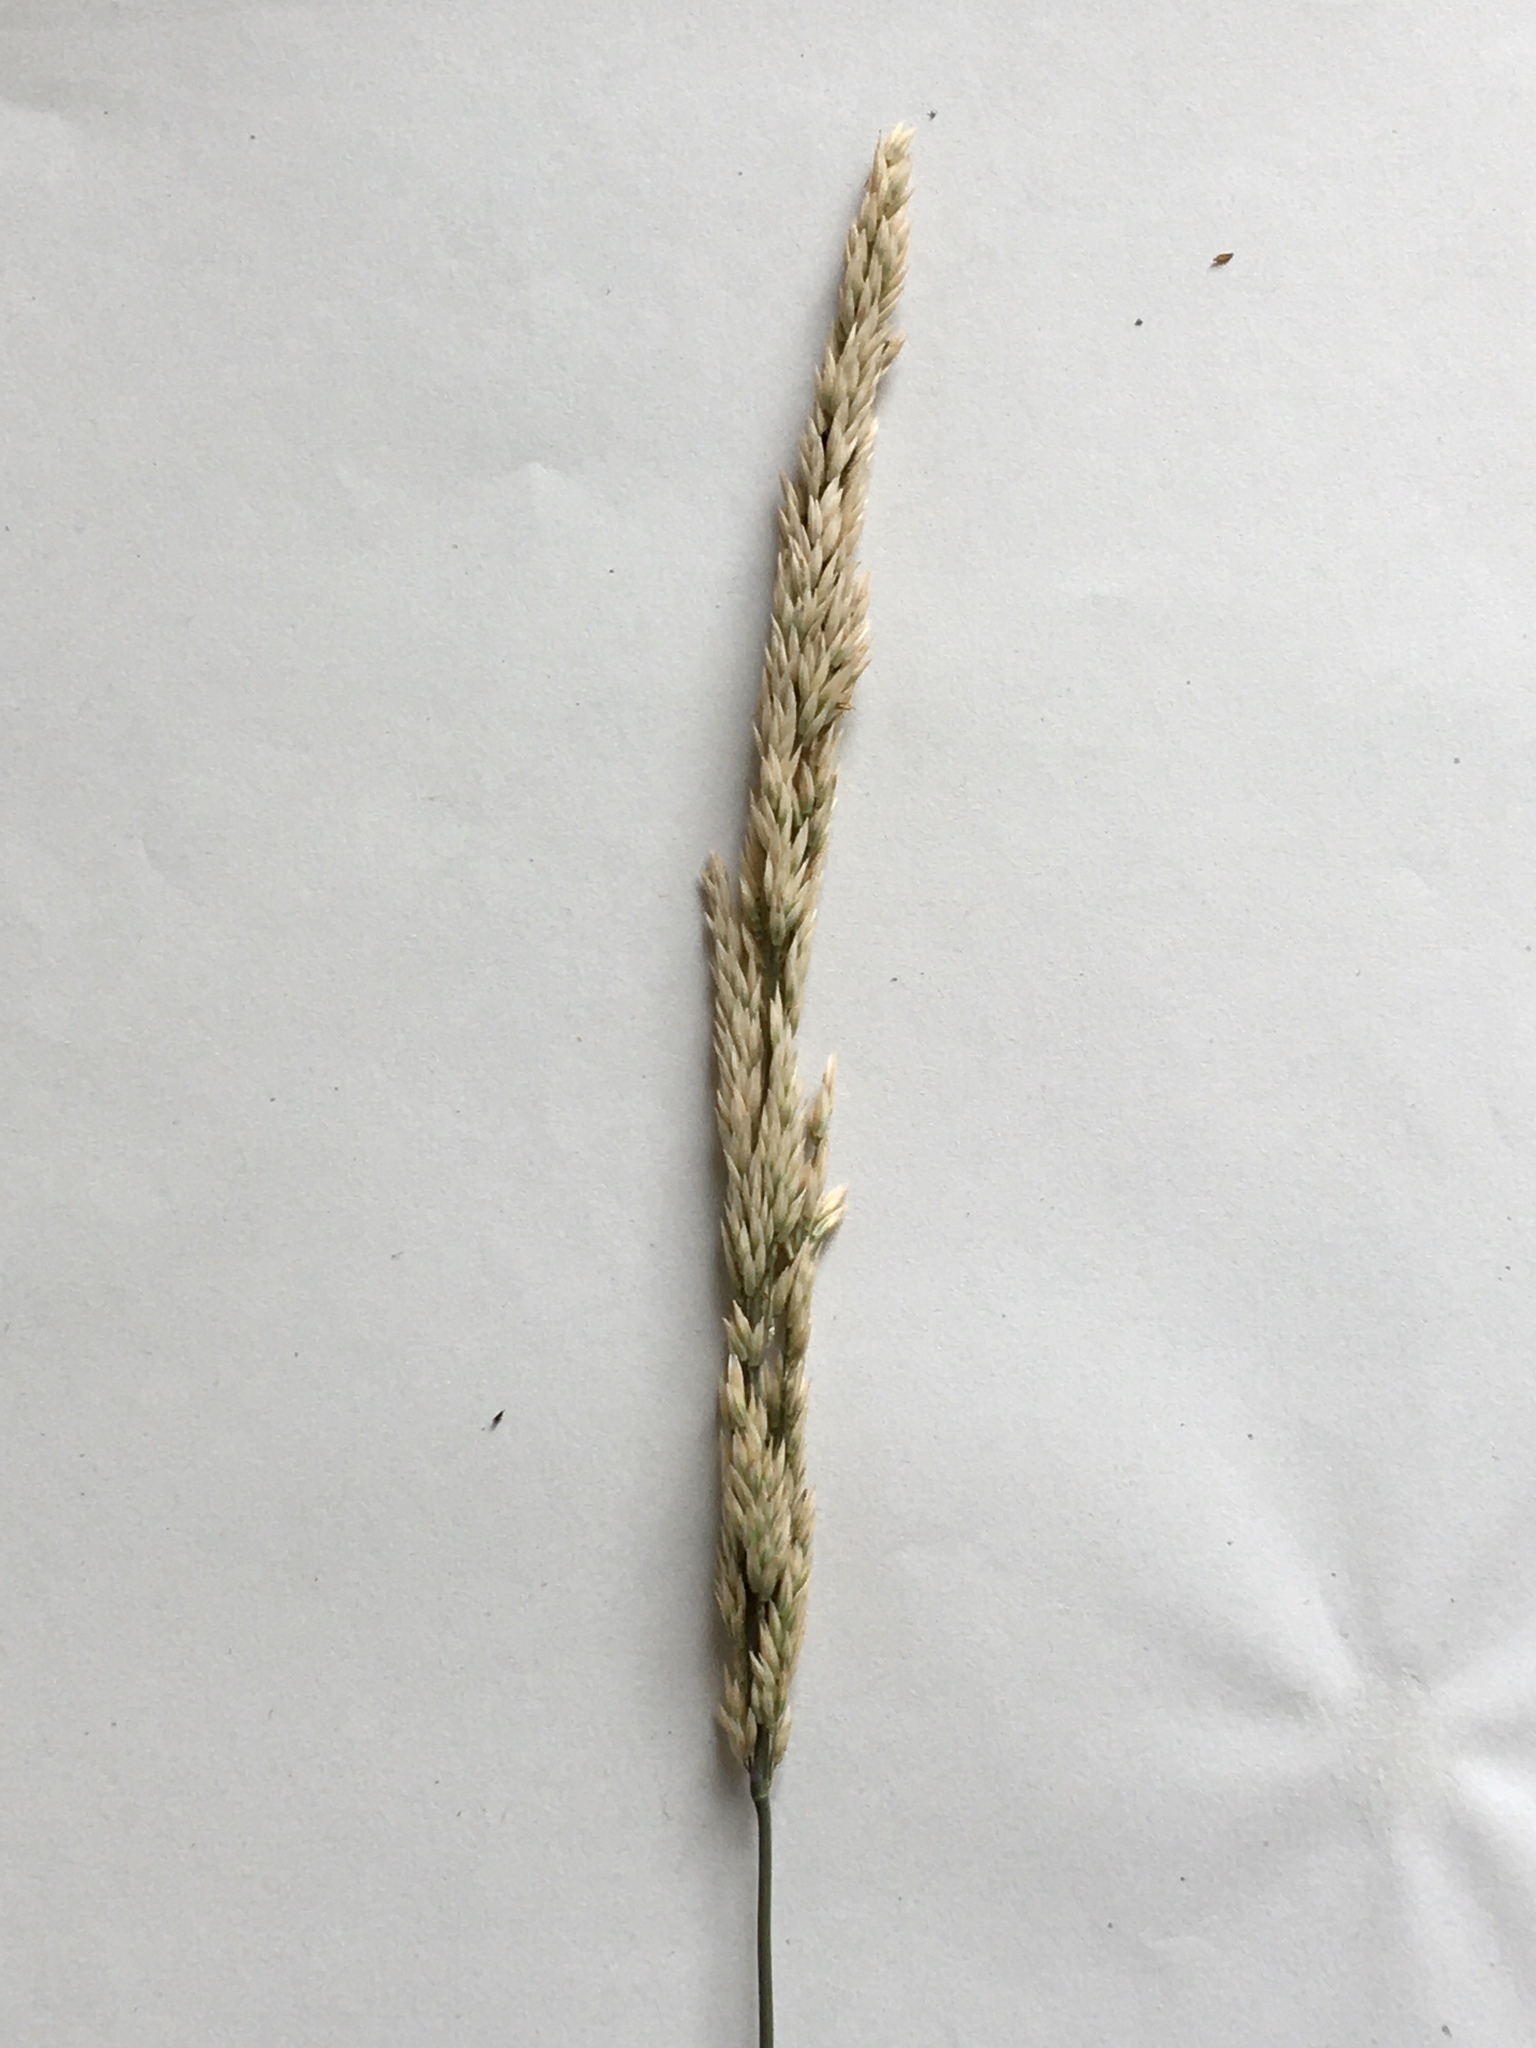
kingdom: Plantae
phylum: Tracheophyta
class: Liliopsida
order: Poales
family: Poaceae
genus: Holcus
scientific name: Holcus lanatus
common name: Yorkshire-fog
